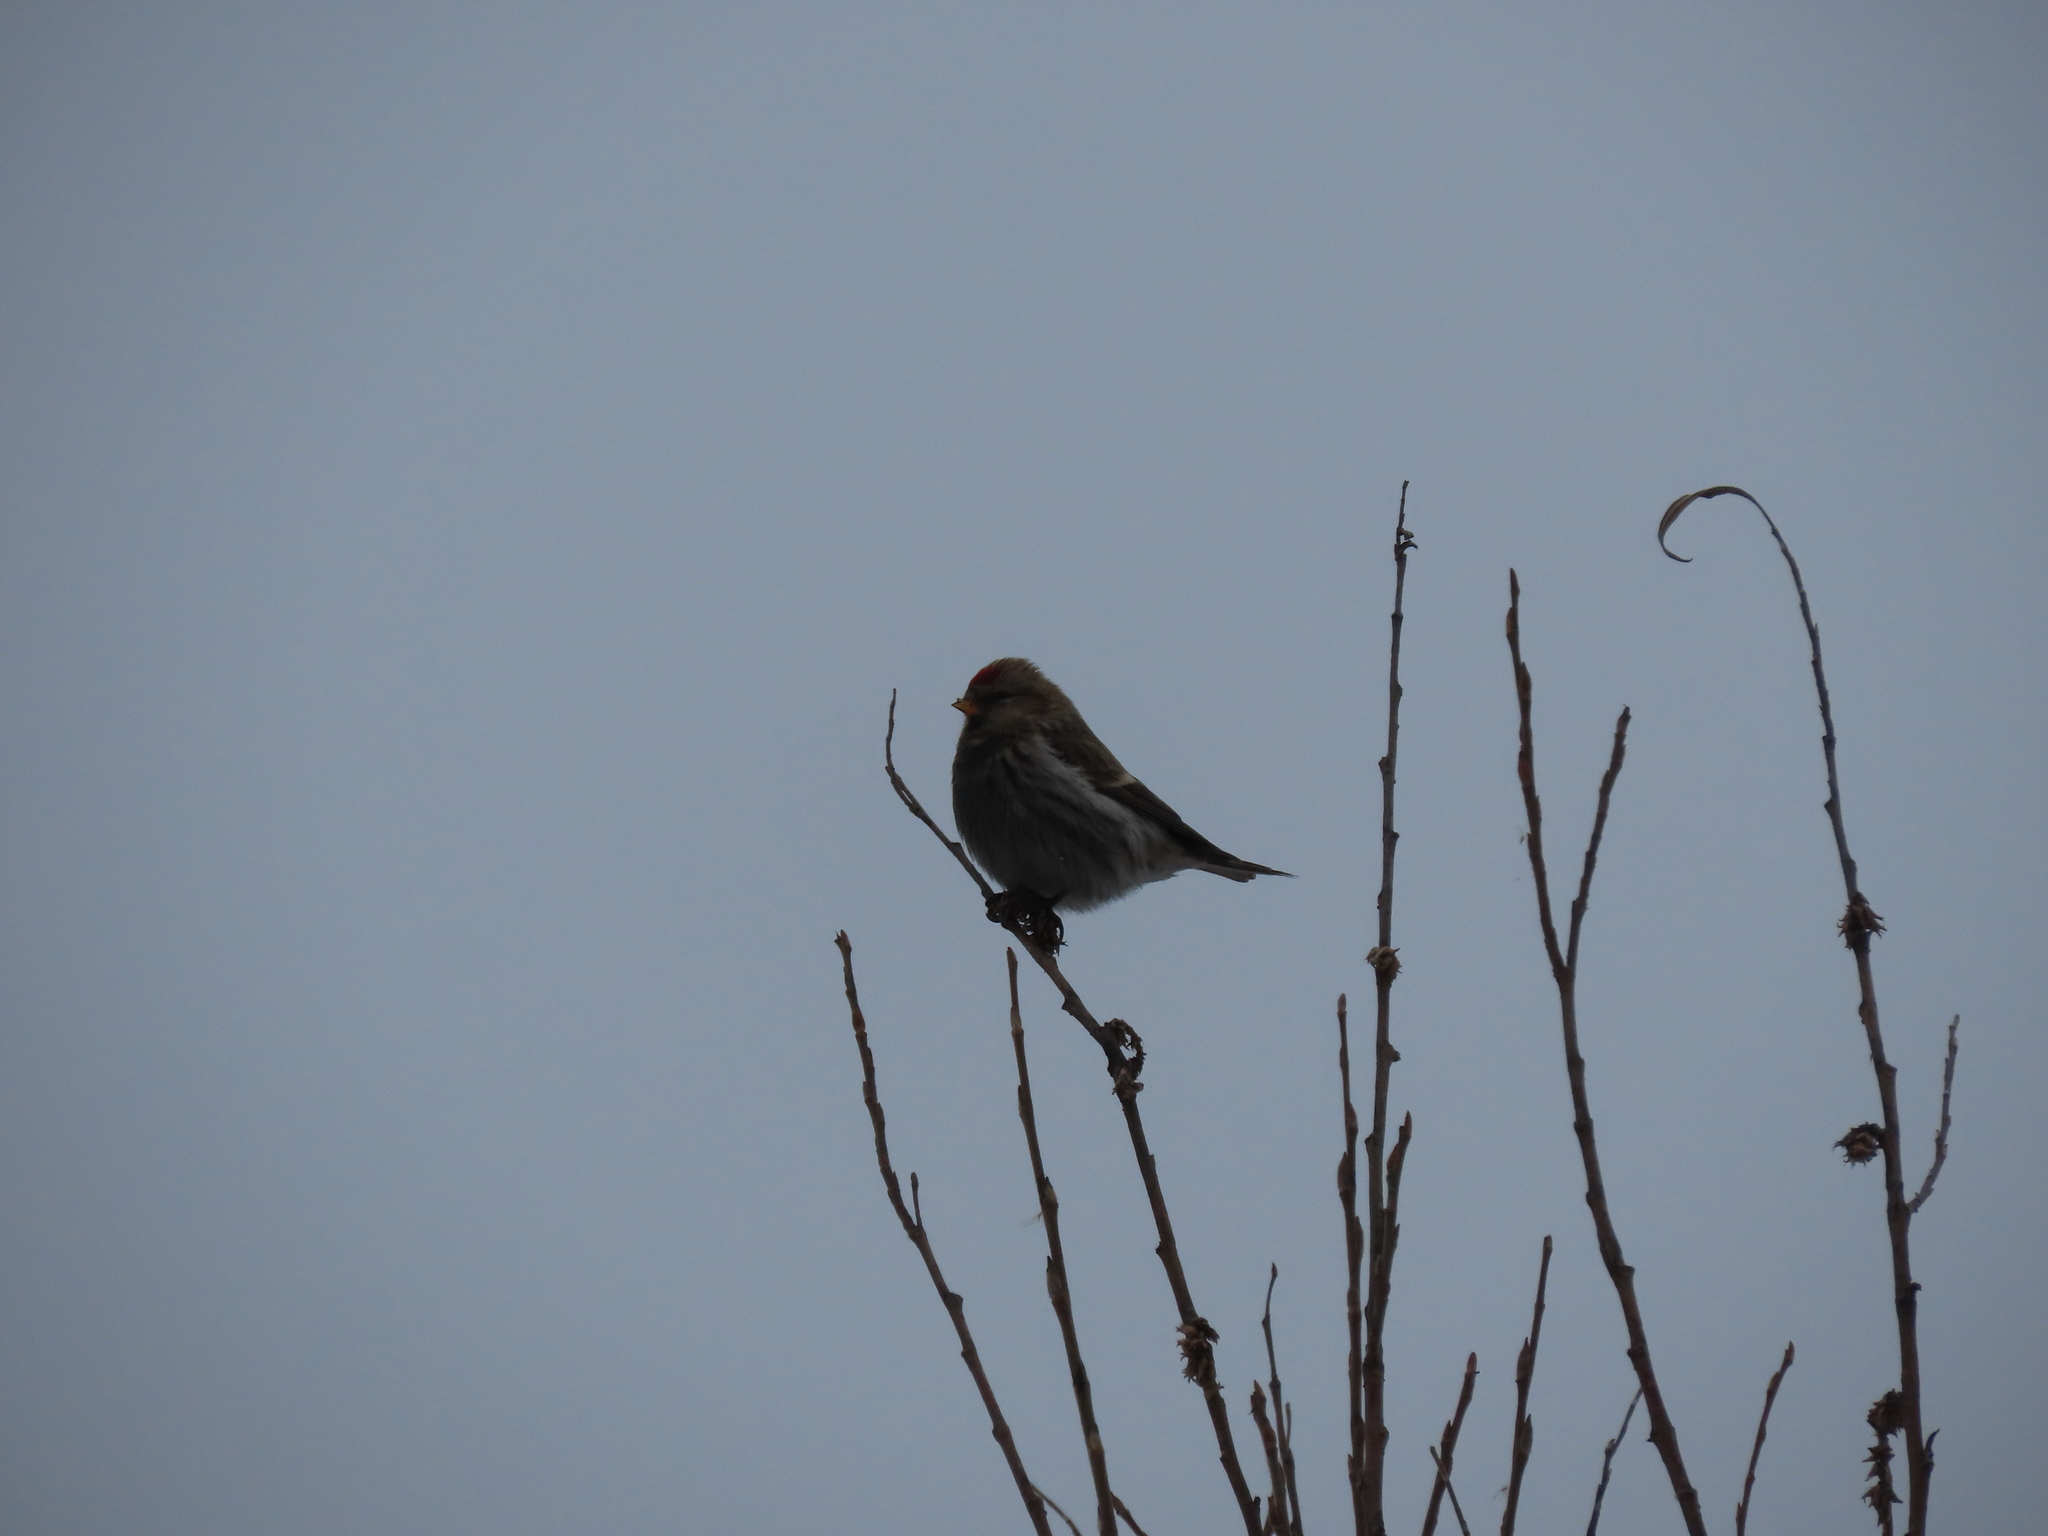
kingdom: Animalia
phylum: Chordata
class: Aves
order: Passeriformes
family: Fringillidae
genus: Acanthis
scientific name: Acanthis flammea
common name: Common redpoll
